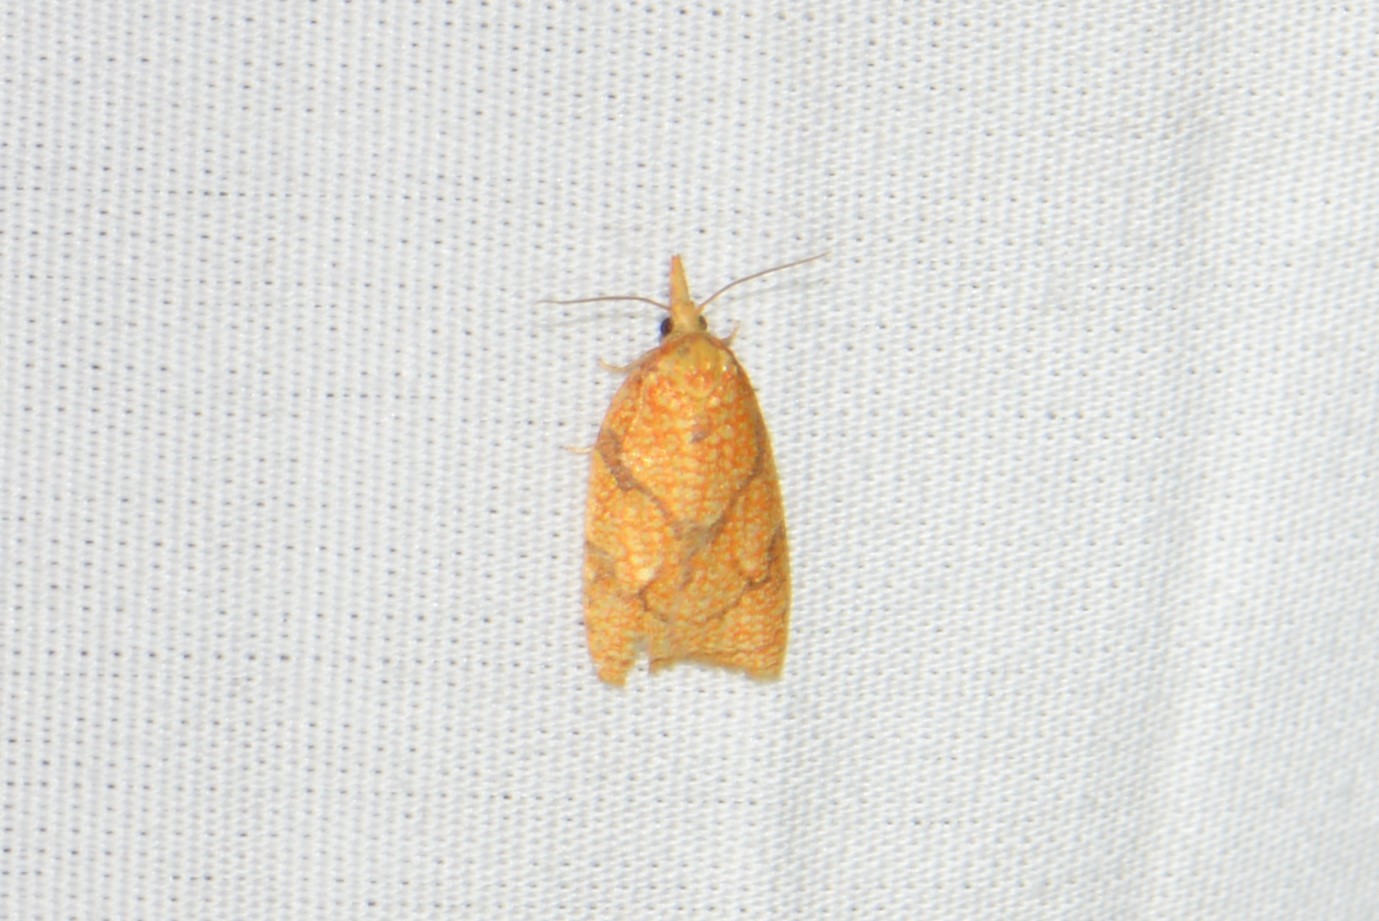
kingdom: Animalia
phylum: Arthropoda
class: Insecta
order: Lepidoptera
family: Tortricidae
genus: Cenopis
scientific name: Cenopis reticulatana
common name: Reticulated fruitworm moth
